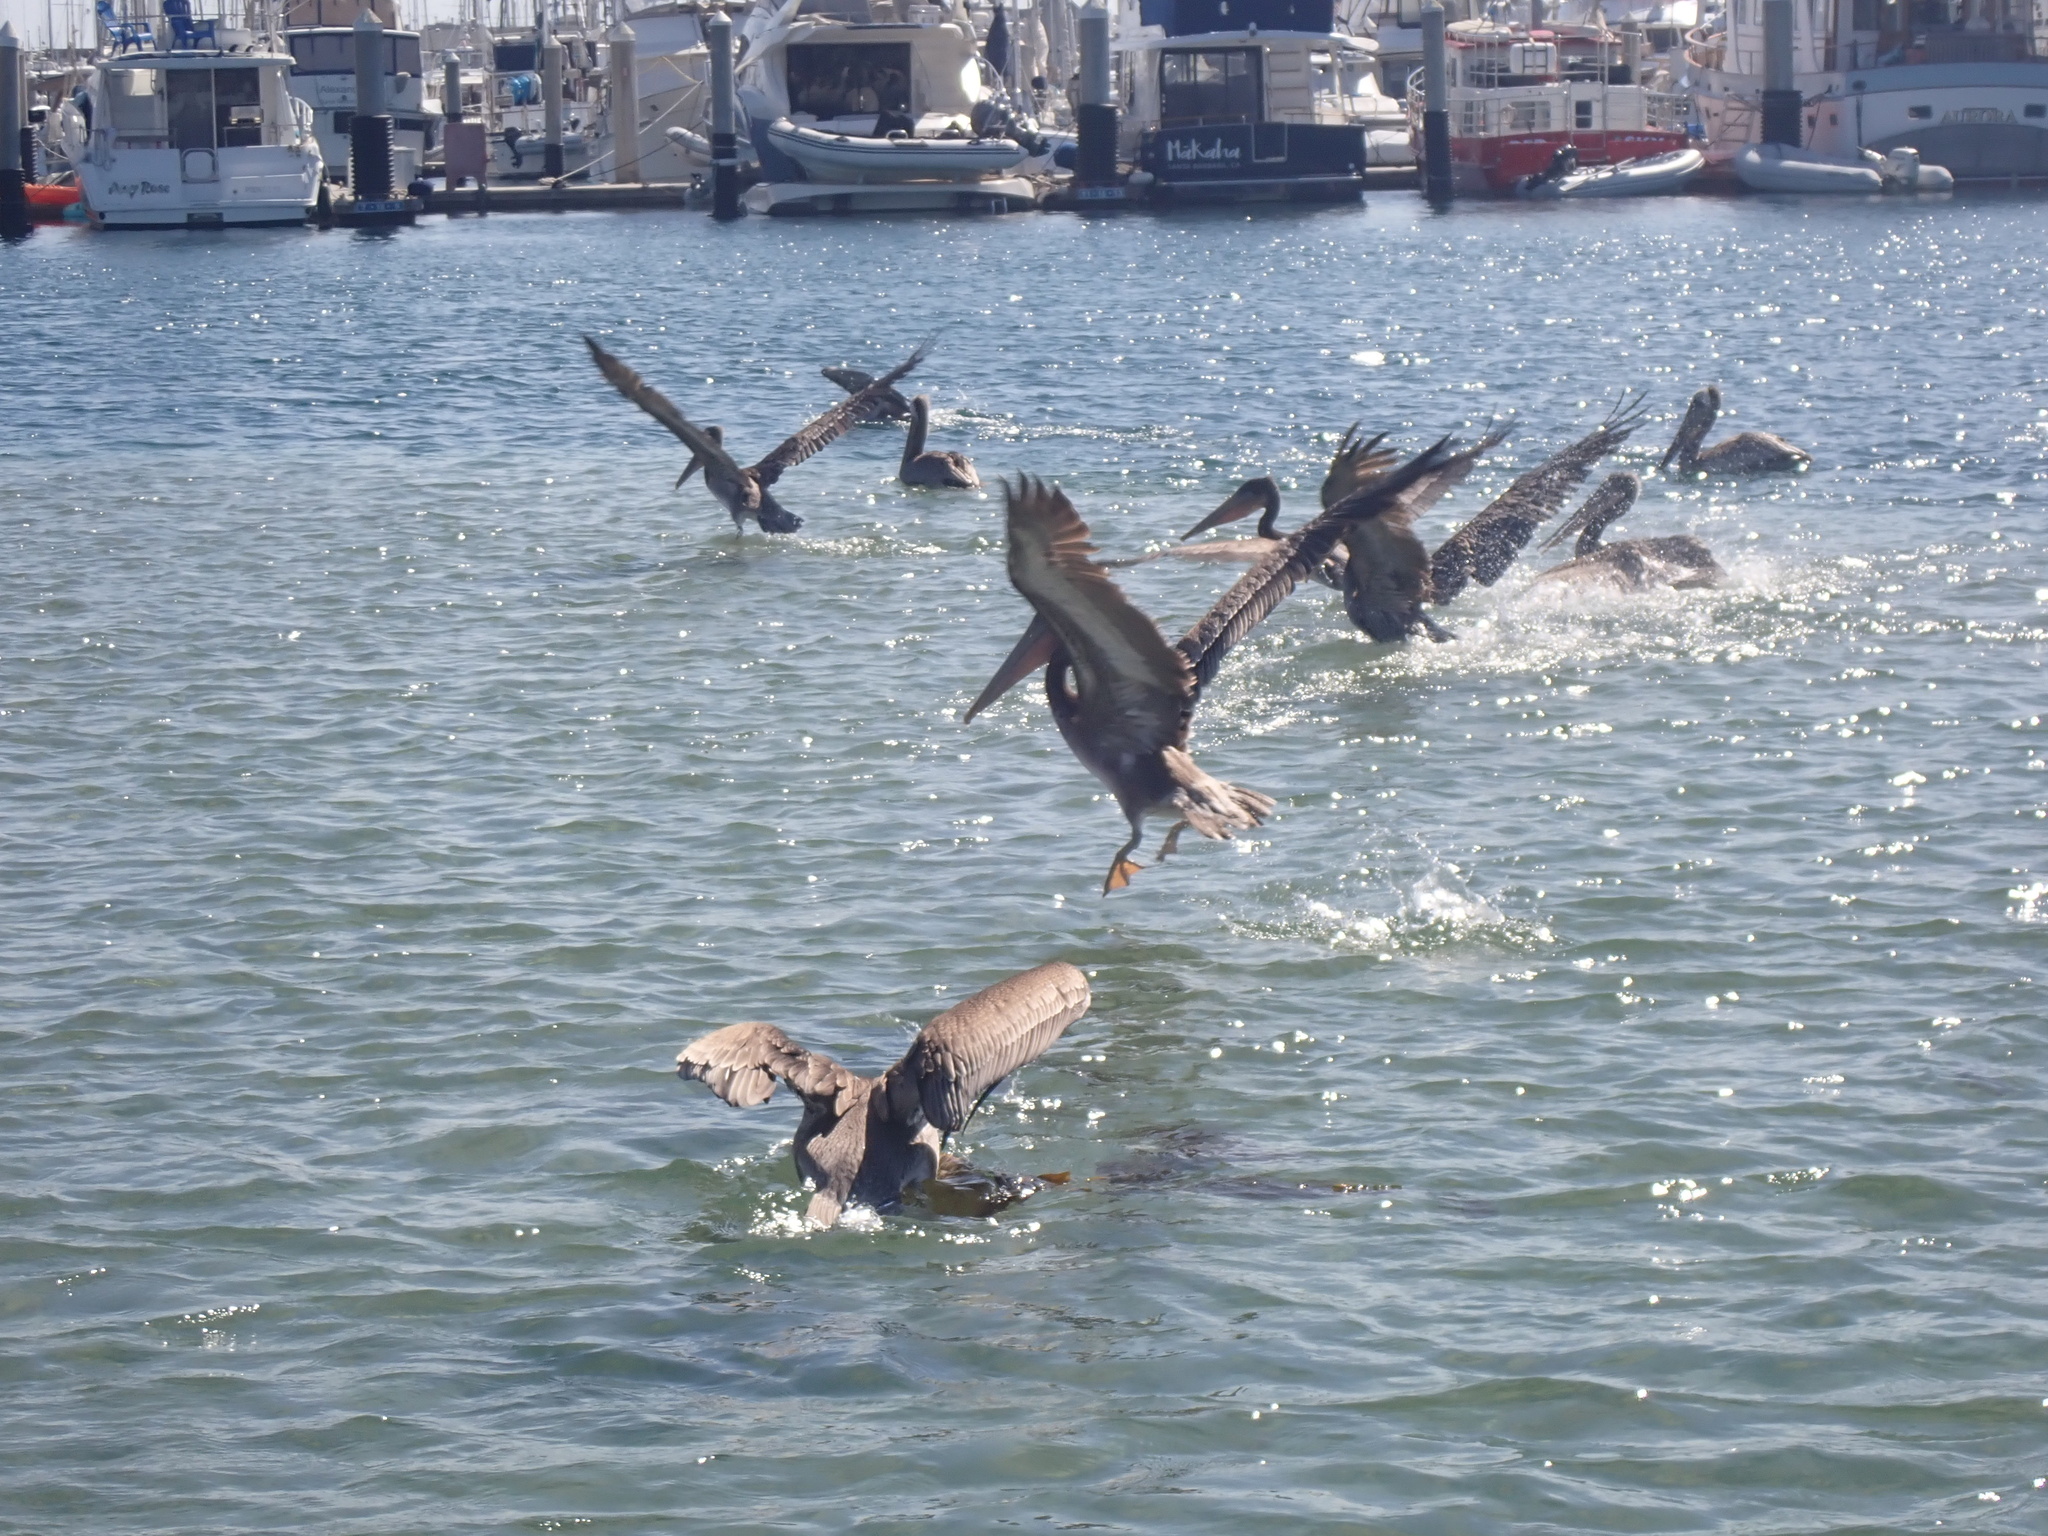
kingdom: Animalia
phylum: Chordata
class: Aves
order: Pelecaniformes
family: Pelecanidae
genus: Pelecanus
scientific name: Pelecanus occidentalis
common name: Brown pelican
